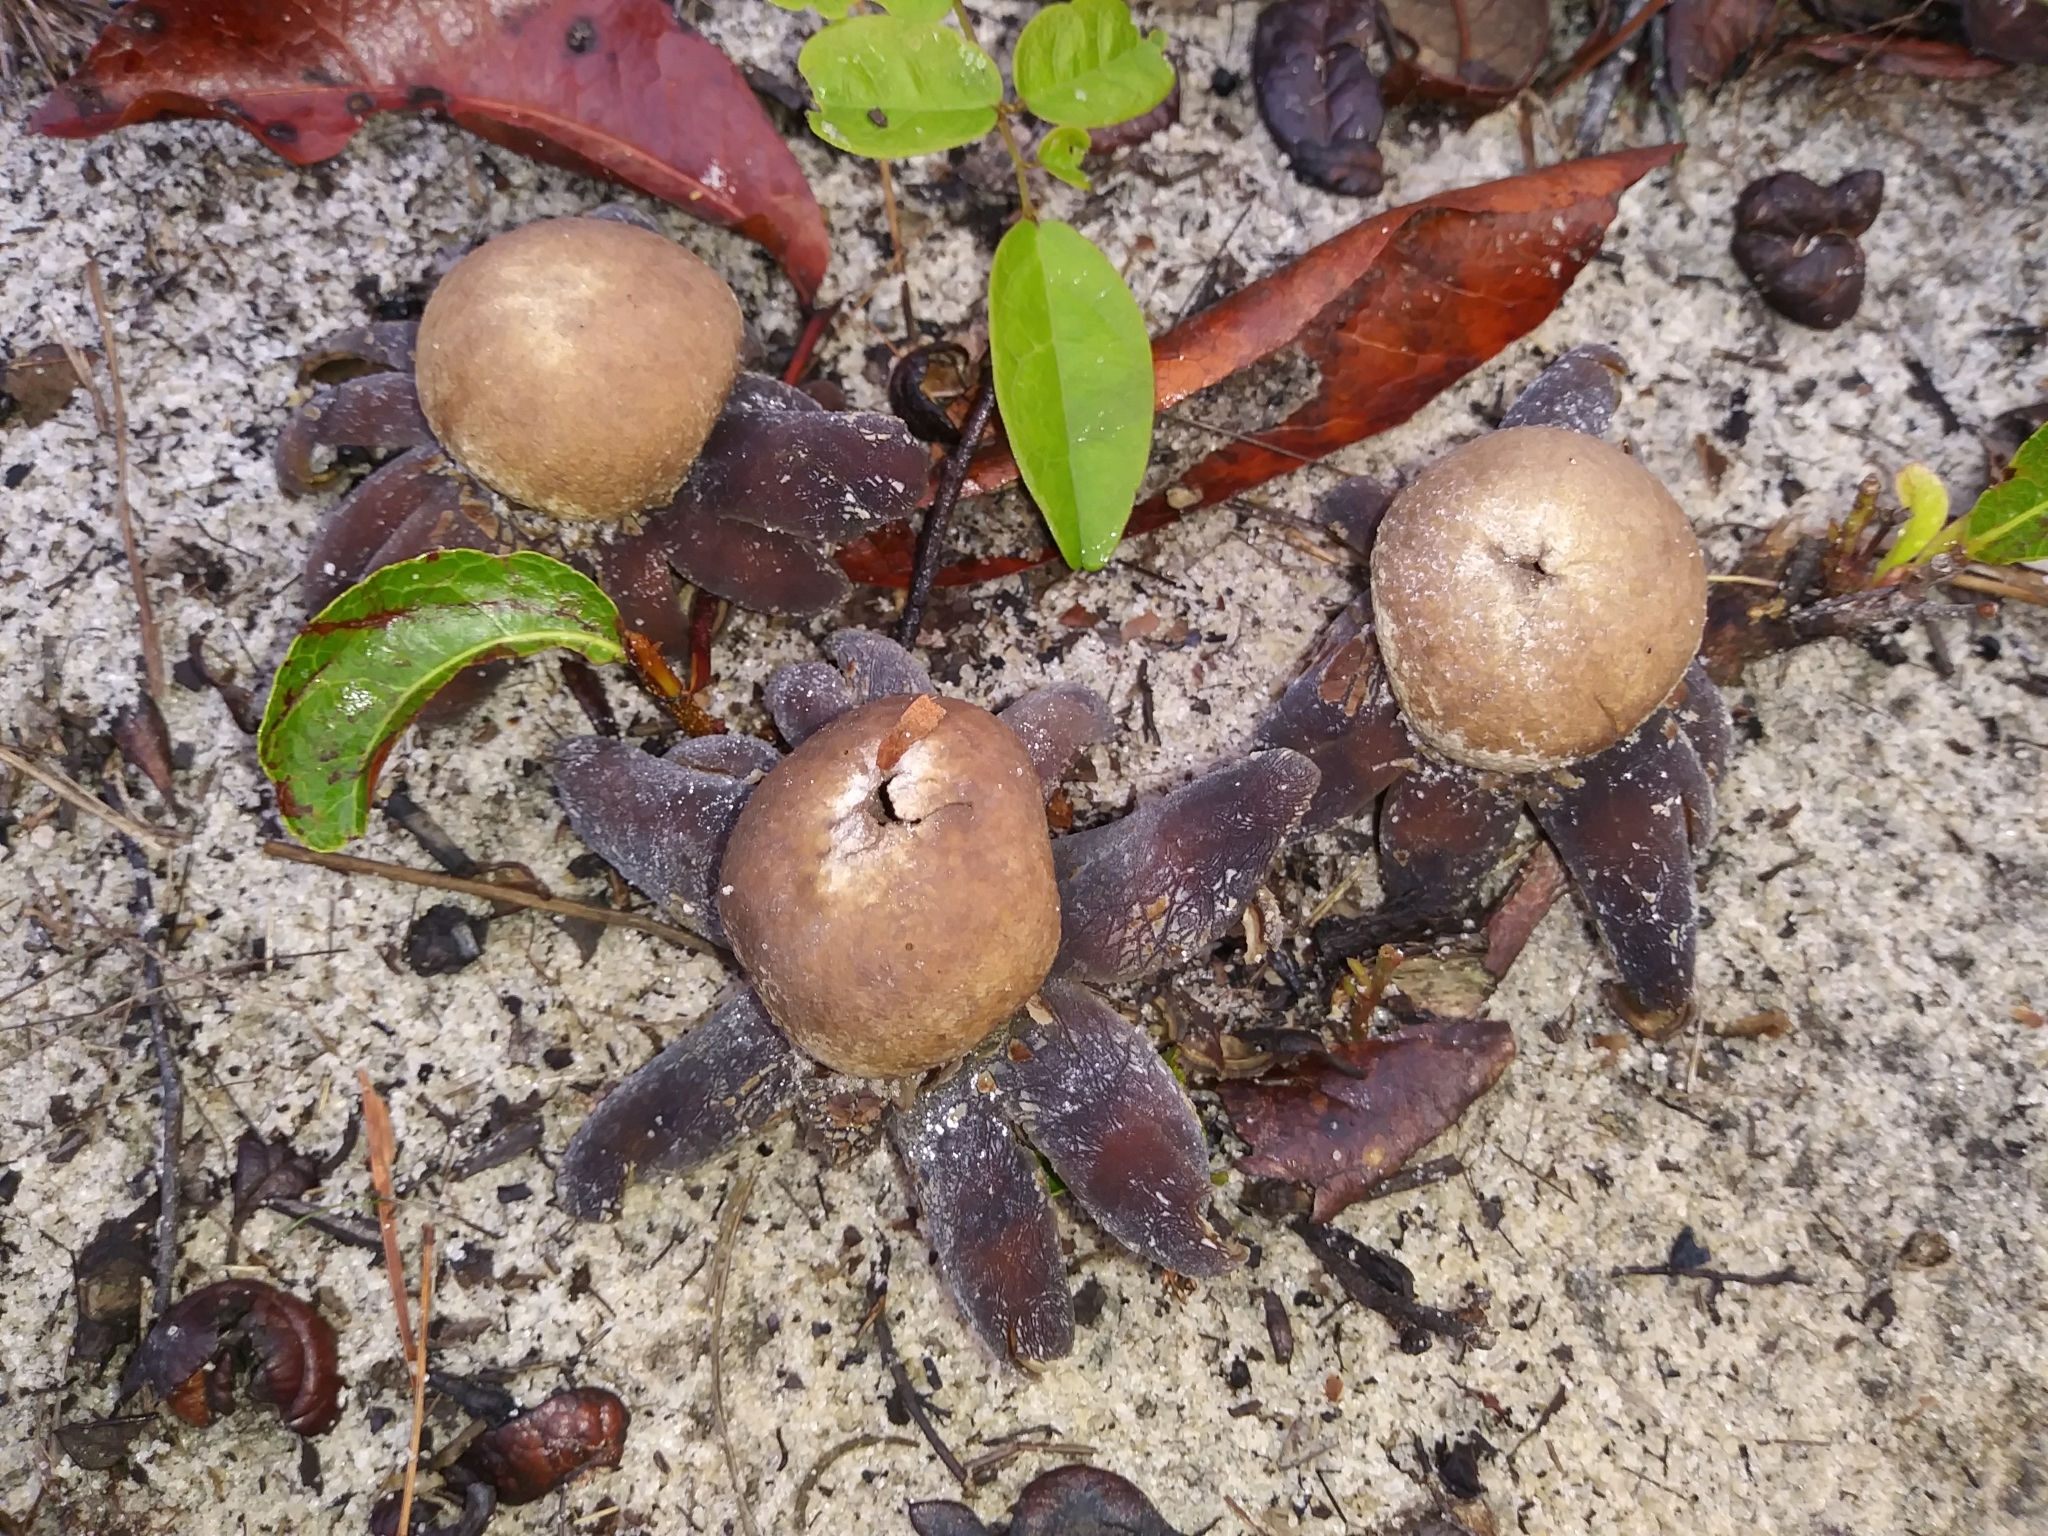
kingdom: Fungi
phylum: Basidiomycota
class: Agaricomycetes
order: Boletales
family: Diplocystidiaceae
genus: Astraeus
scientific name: Astraeus hygrometricus
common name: Barometer earthstar
